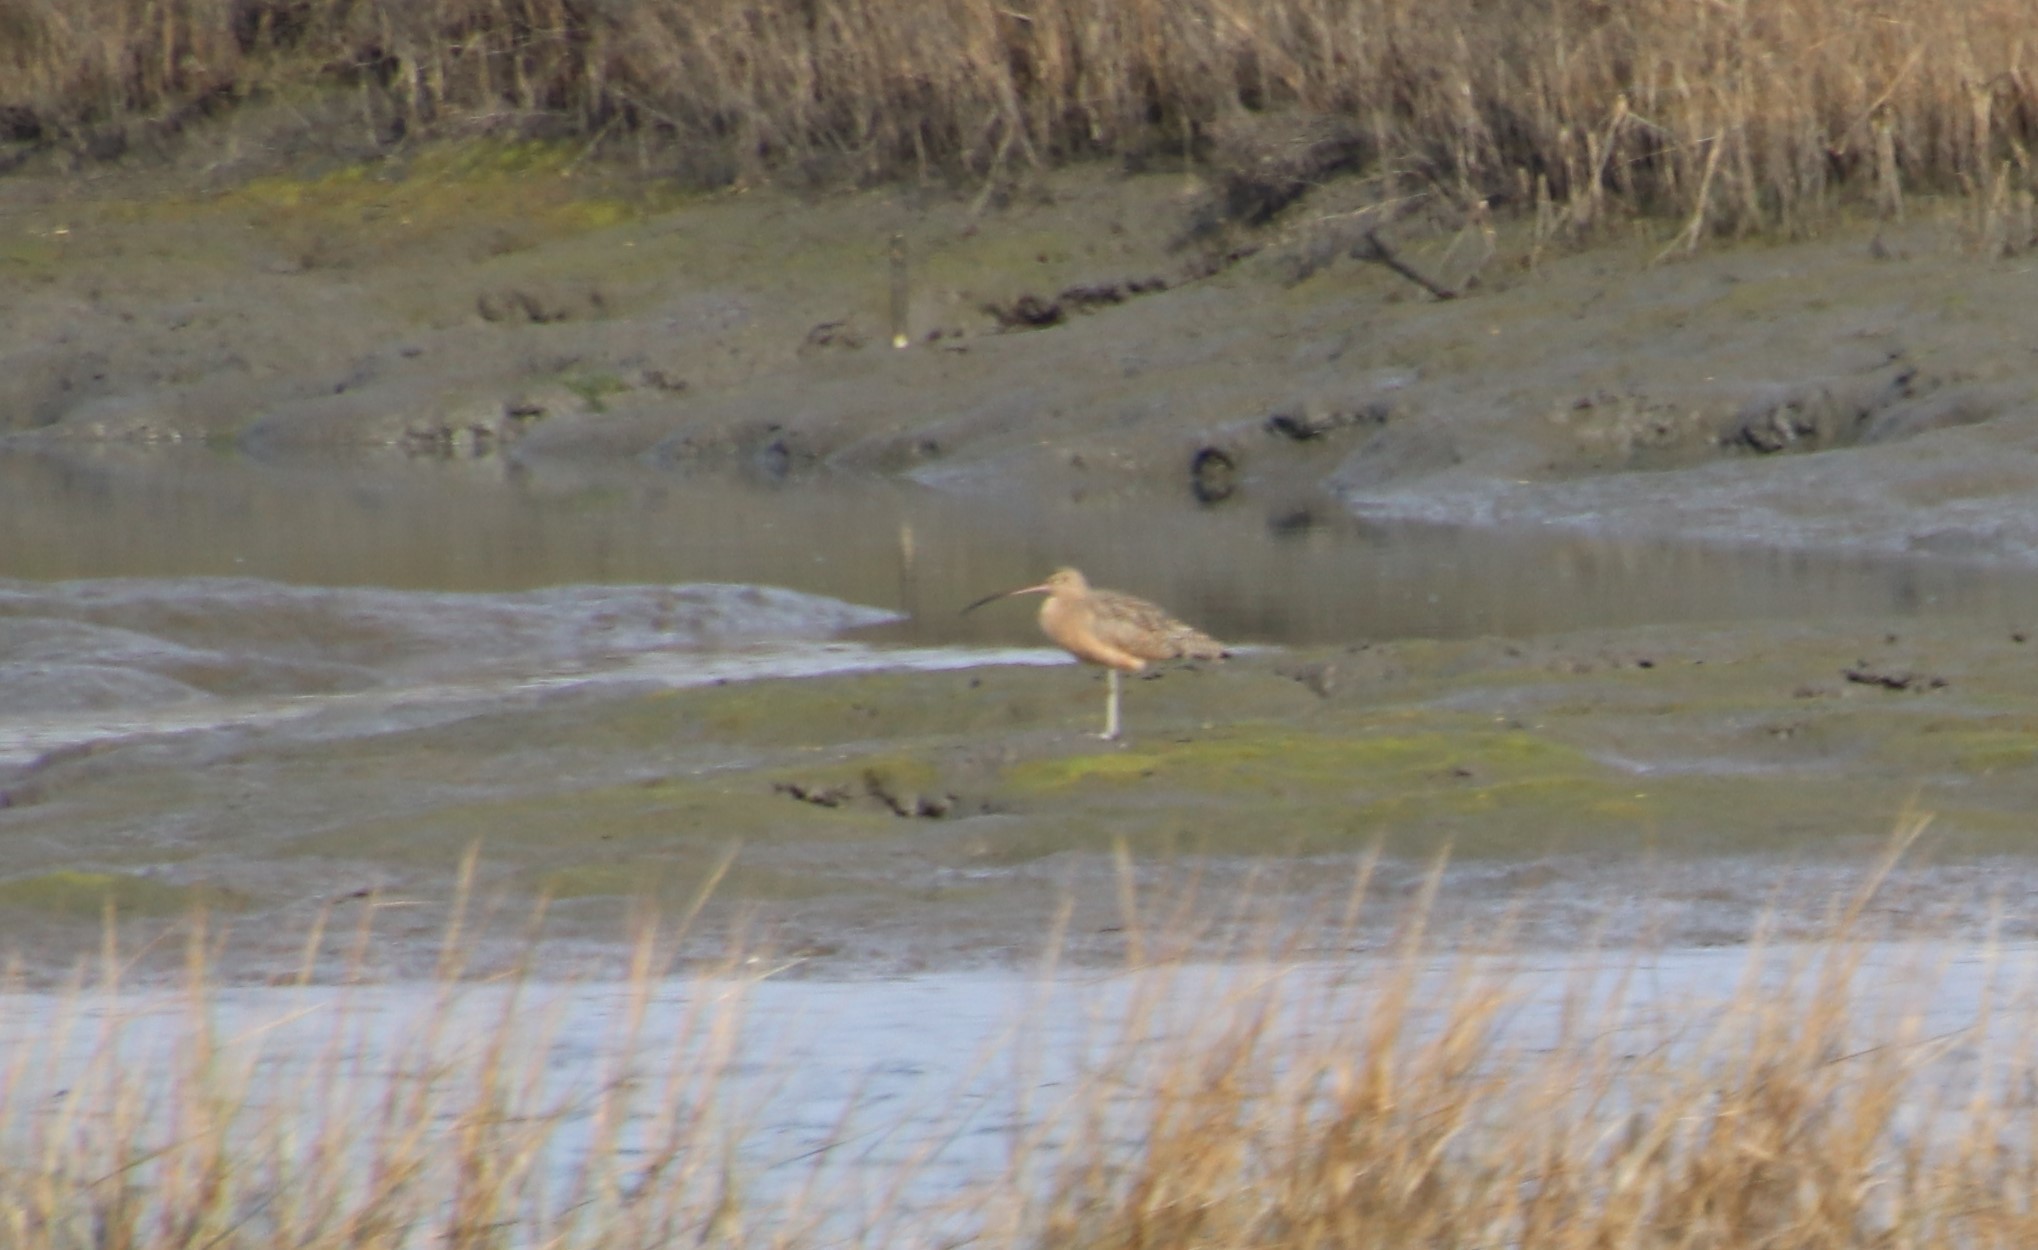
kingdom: Animalia
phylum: Chordata
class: Aves
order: Charadriiformes
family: Scolopacidae
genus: Numenius
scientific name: Numenius americanus
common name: Long-billed curlew
